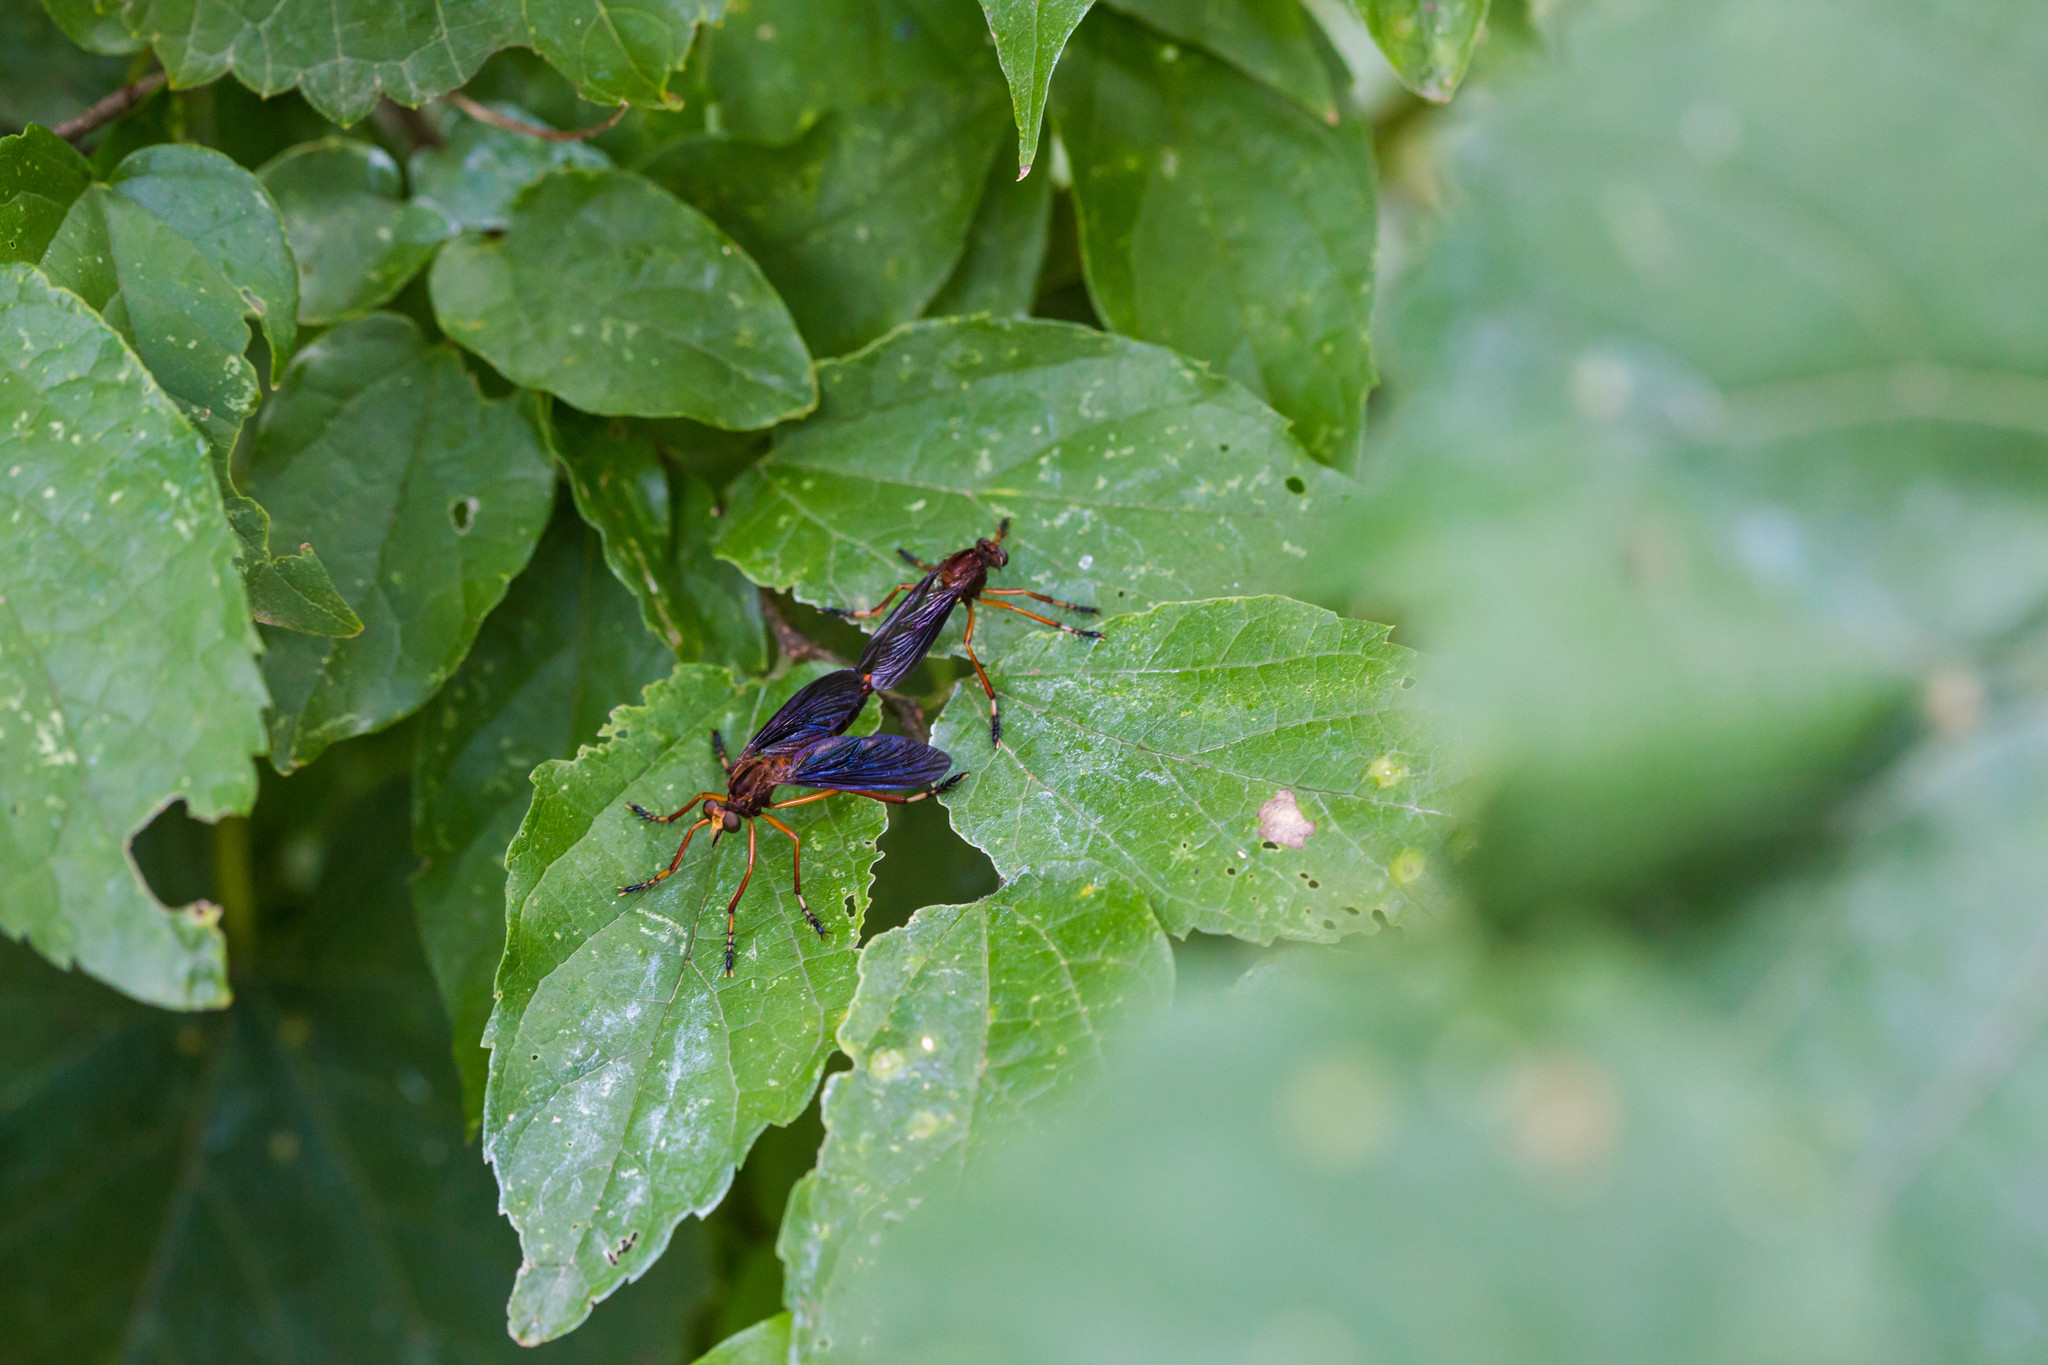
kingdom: Animalia
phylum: Arthropoda
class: Insecta
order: Diptera
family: Asilidae
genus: Diogmites
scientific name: Diogmites platypterus
